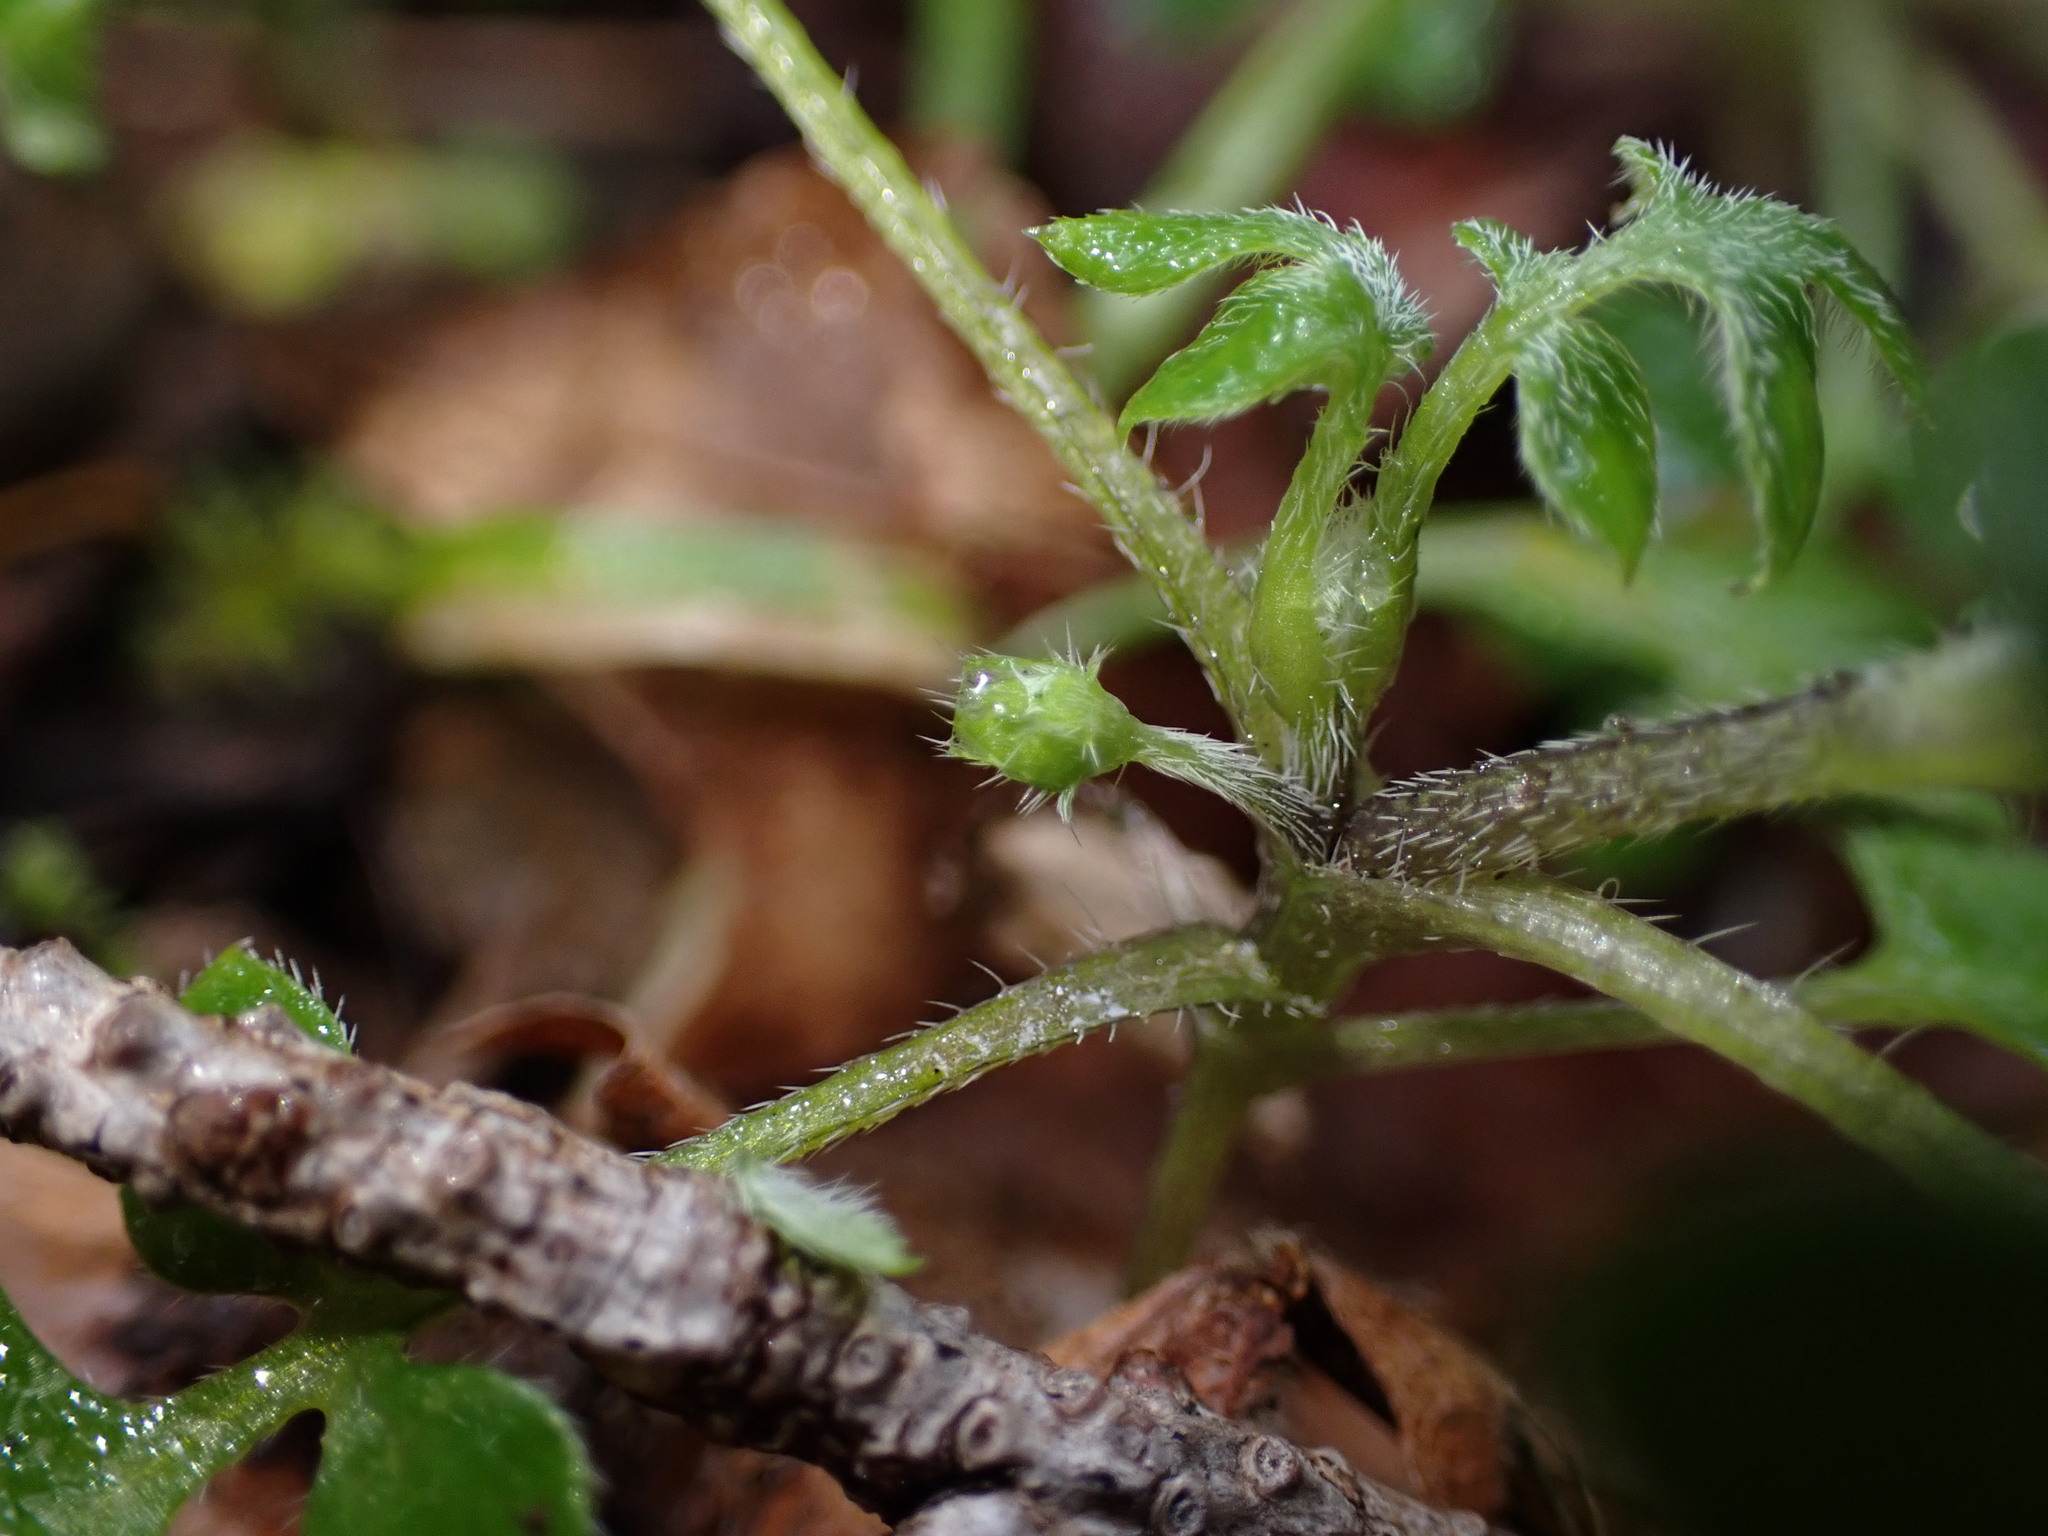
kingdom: Plantae
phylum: Tracheophyta
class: Magnoliopsida
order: Boraginales
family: Hydrophyllaceae
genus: Nemophila
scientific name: Nemophila parviflora
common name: Small-flowered baby-blue-eyes
